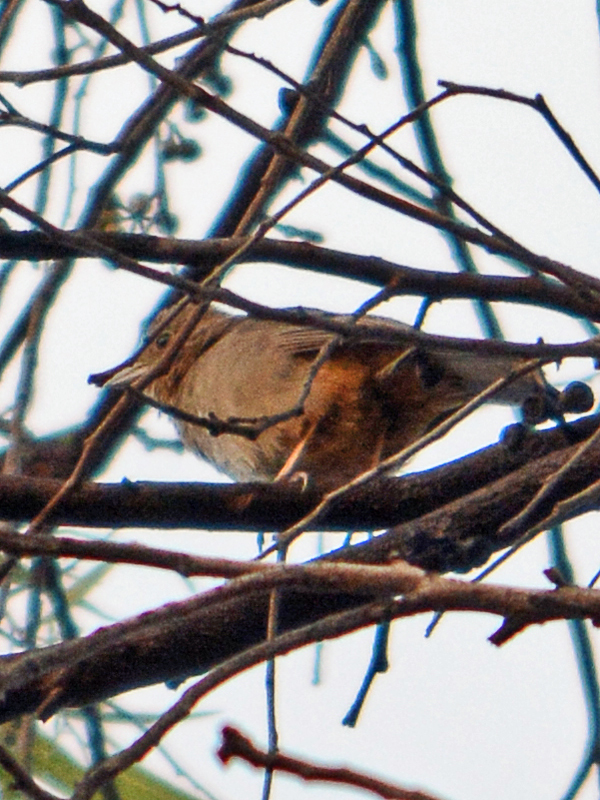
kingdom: Animalia
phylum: Chordata
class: Aves
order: Passeriformes
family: Passerellidae
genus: Melozone
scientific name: Melozone fusca
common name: Canyon towhee
